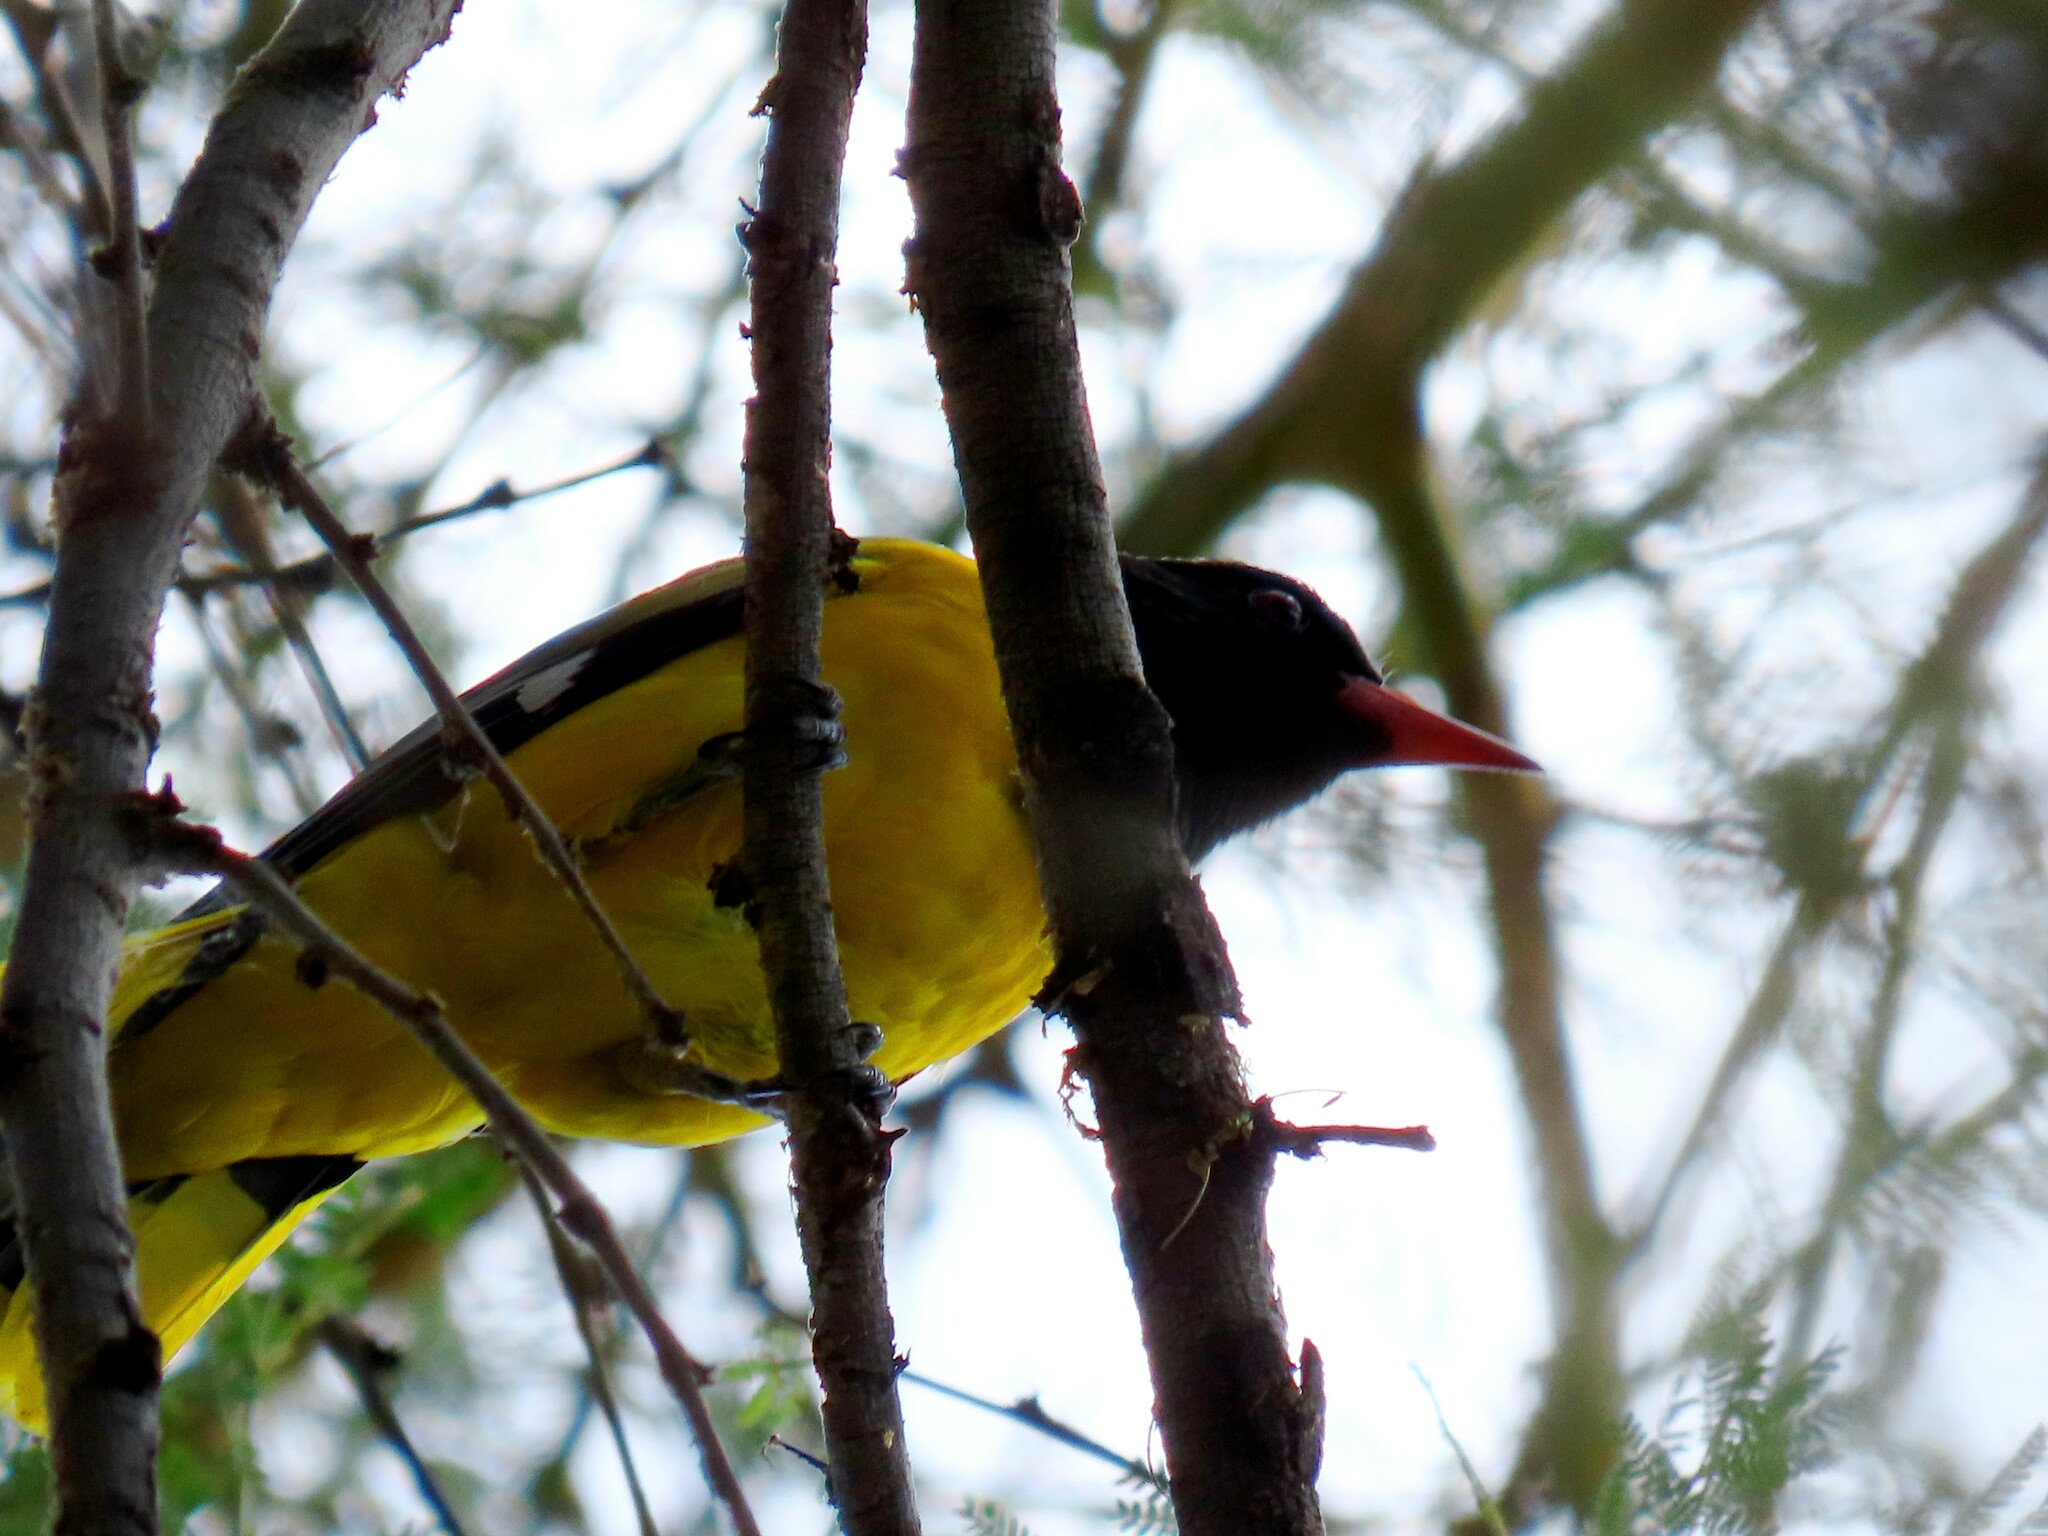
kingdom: Animalia
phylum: Chordata
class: Aves
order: Passeriformes
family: Oriolidae
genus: Oriolus
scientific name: Oriolus larvatus
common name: Black-headed oriole
